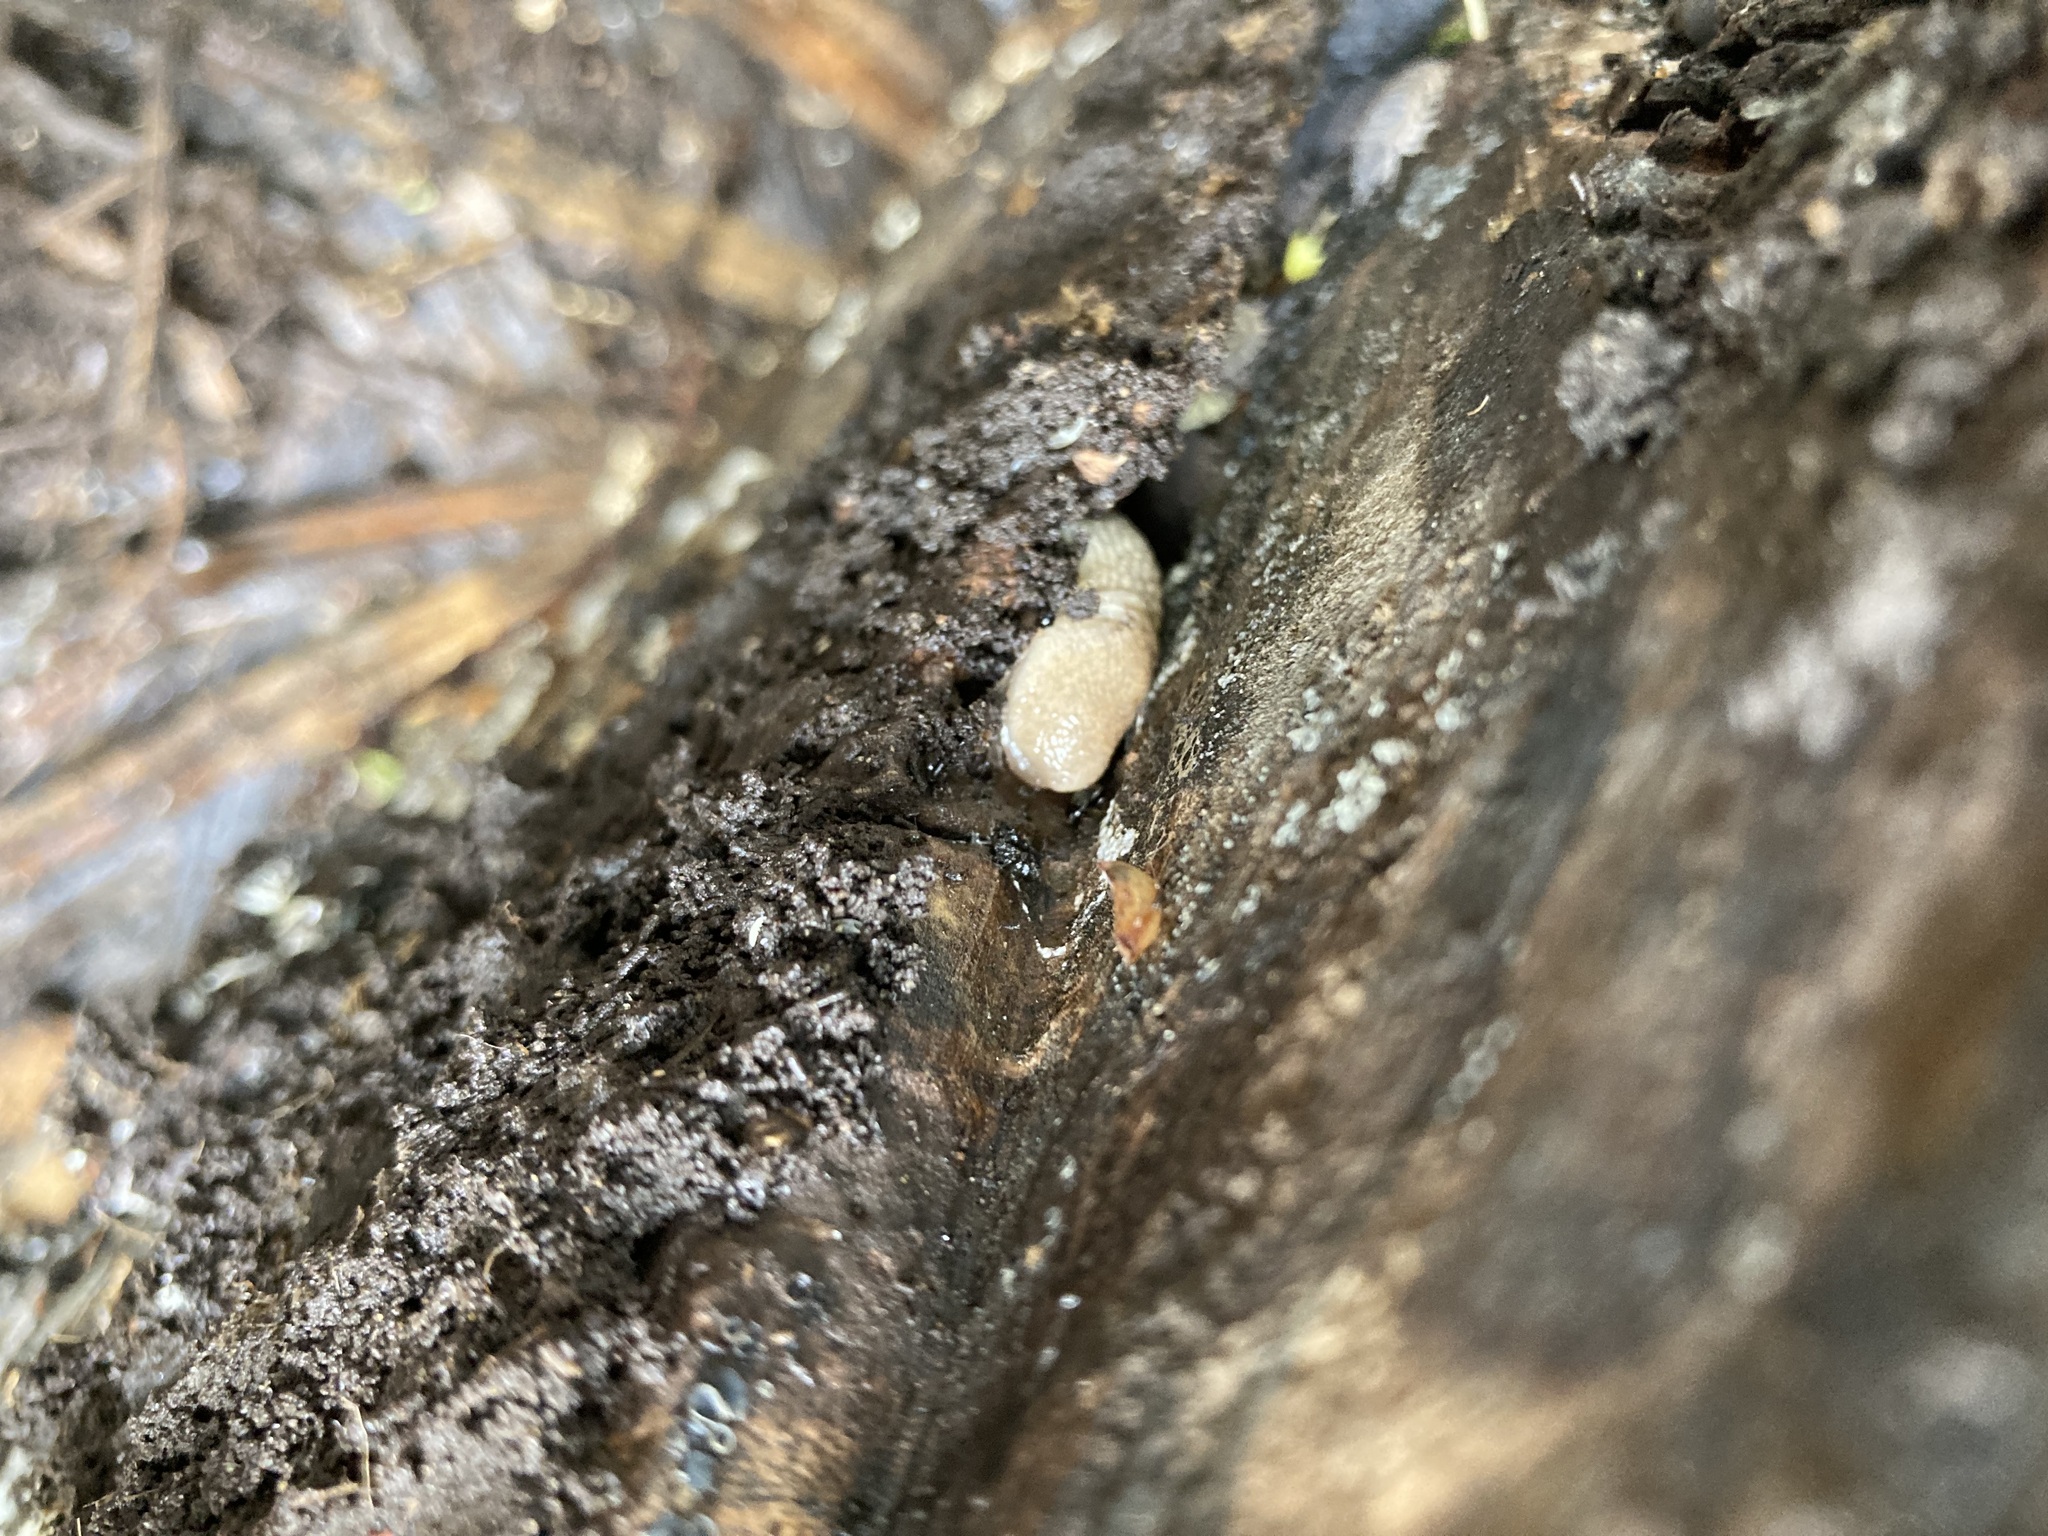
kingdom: Animalia
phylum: Mollusca
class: Gastropoda
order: Stylommatophora
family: Agriolimacidae
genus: Deroceras
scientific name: Deroceras reticulatum
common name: Gray field slug
